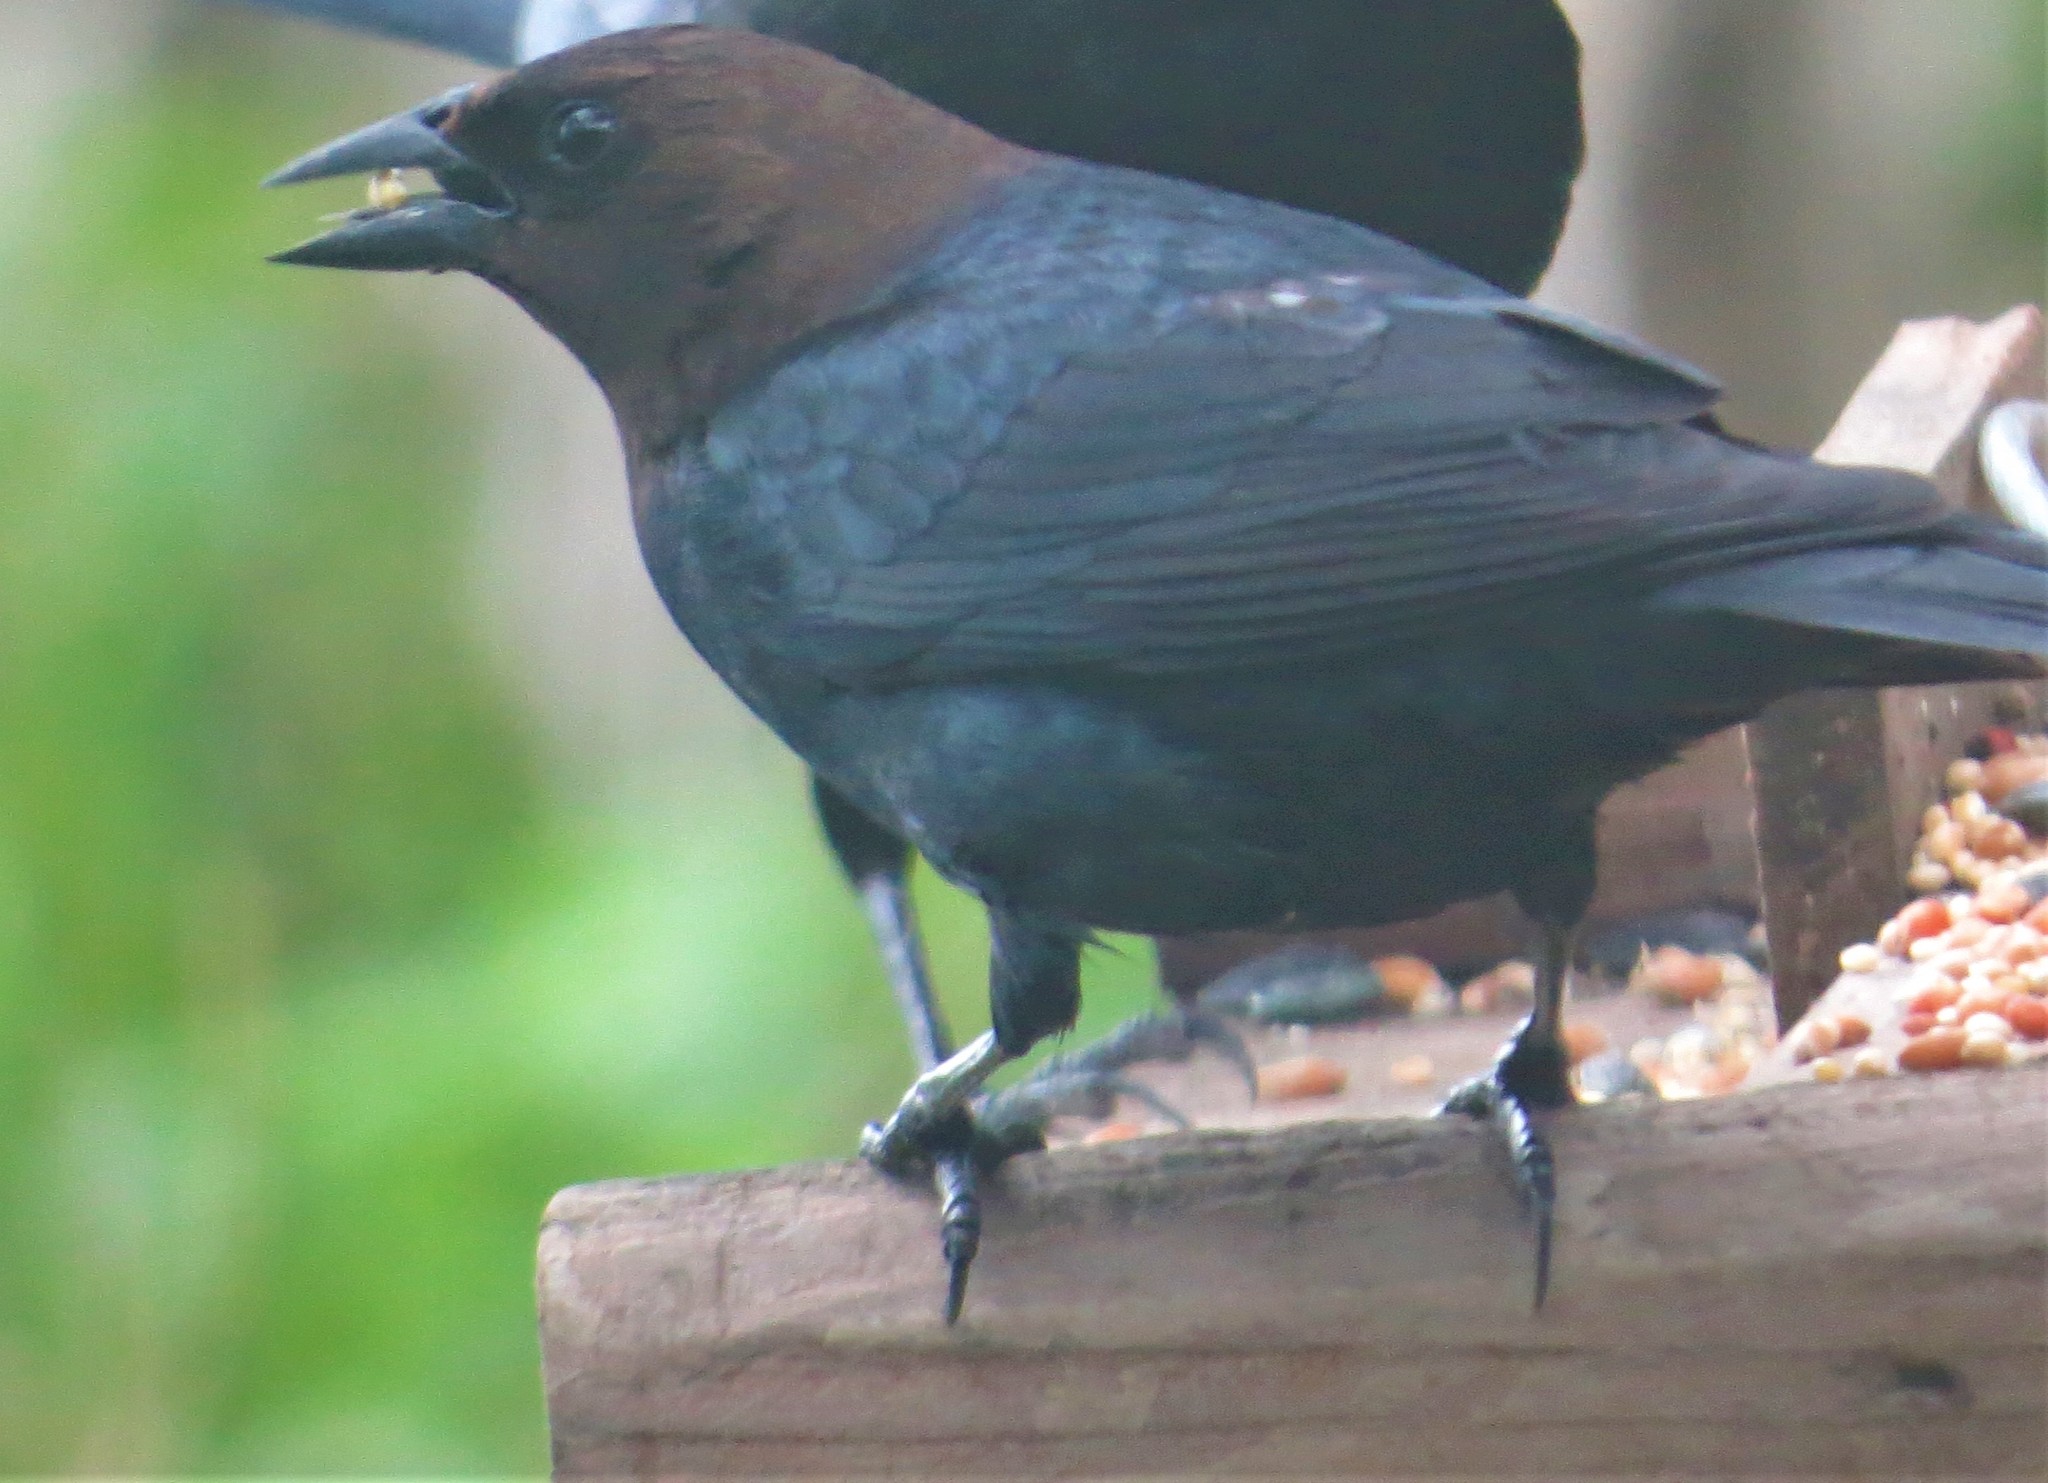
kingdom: Animalia
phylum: Chordata
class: Aves
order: Passeriformes
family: Icteridae
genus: Molothrus
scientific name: Molothrus ater
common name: Brown-headed cowbird
